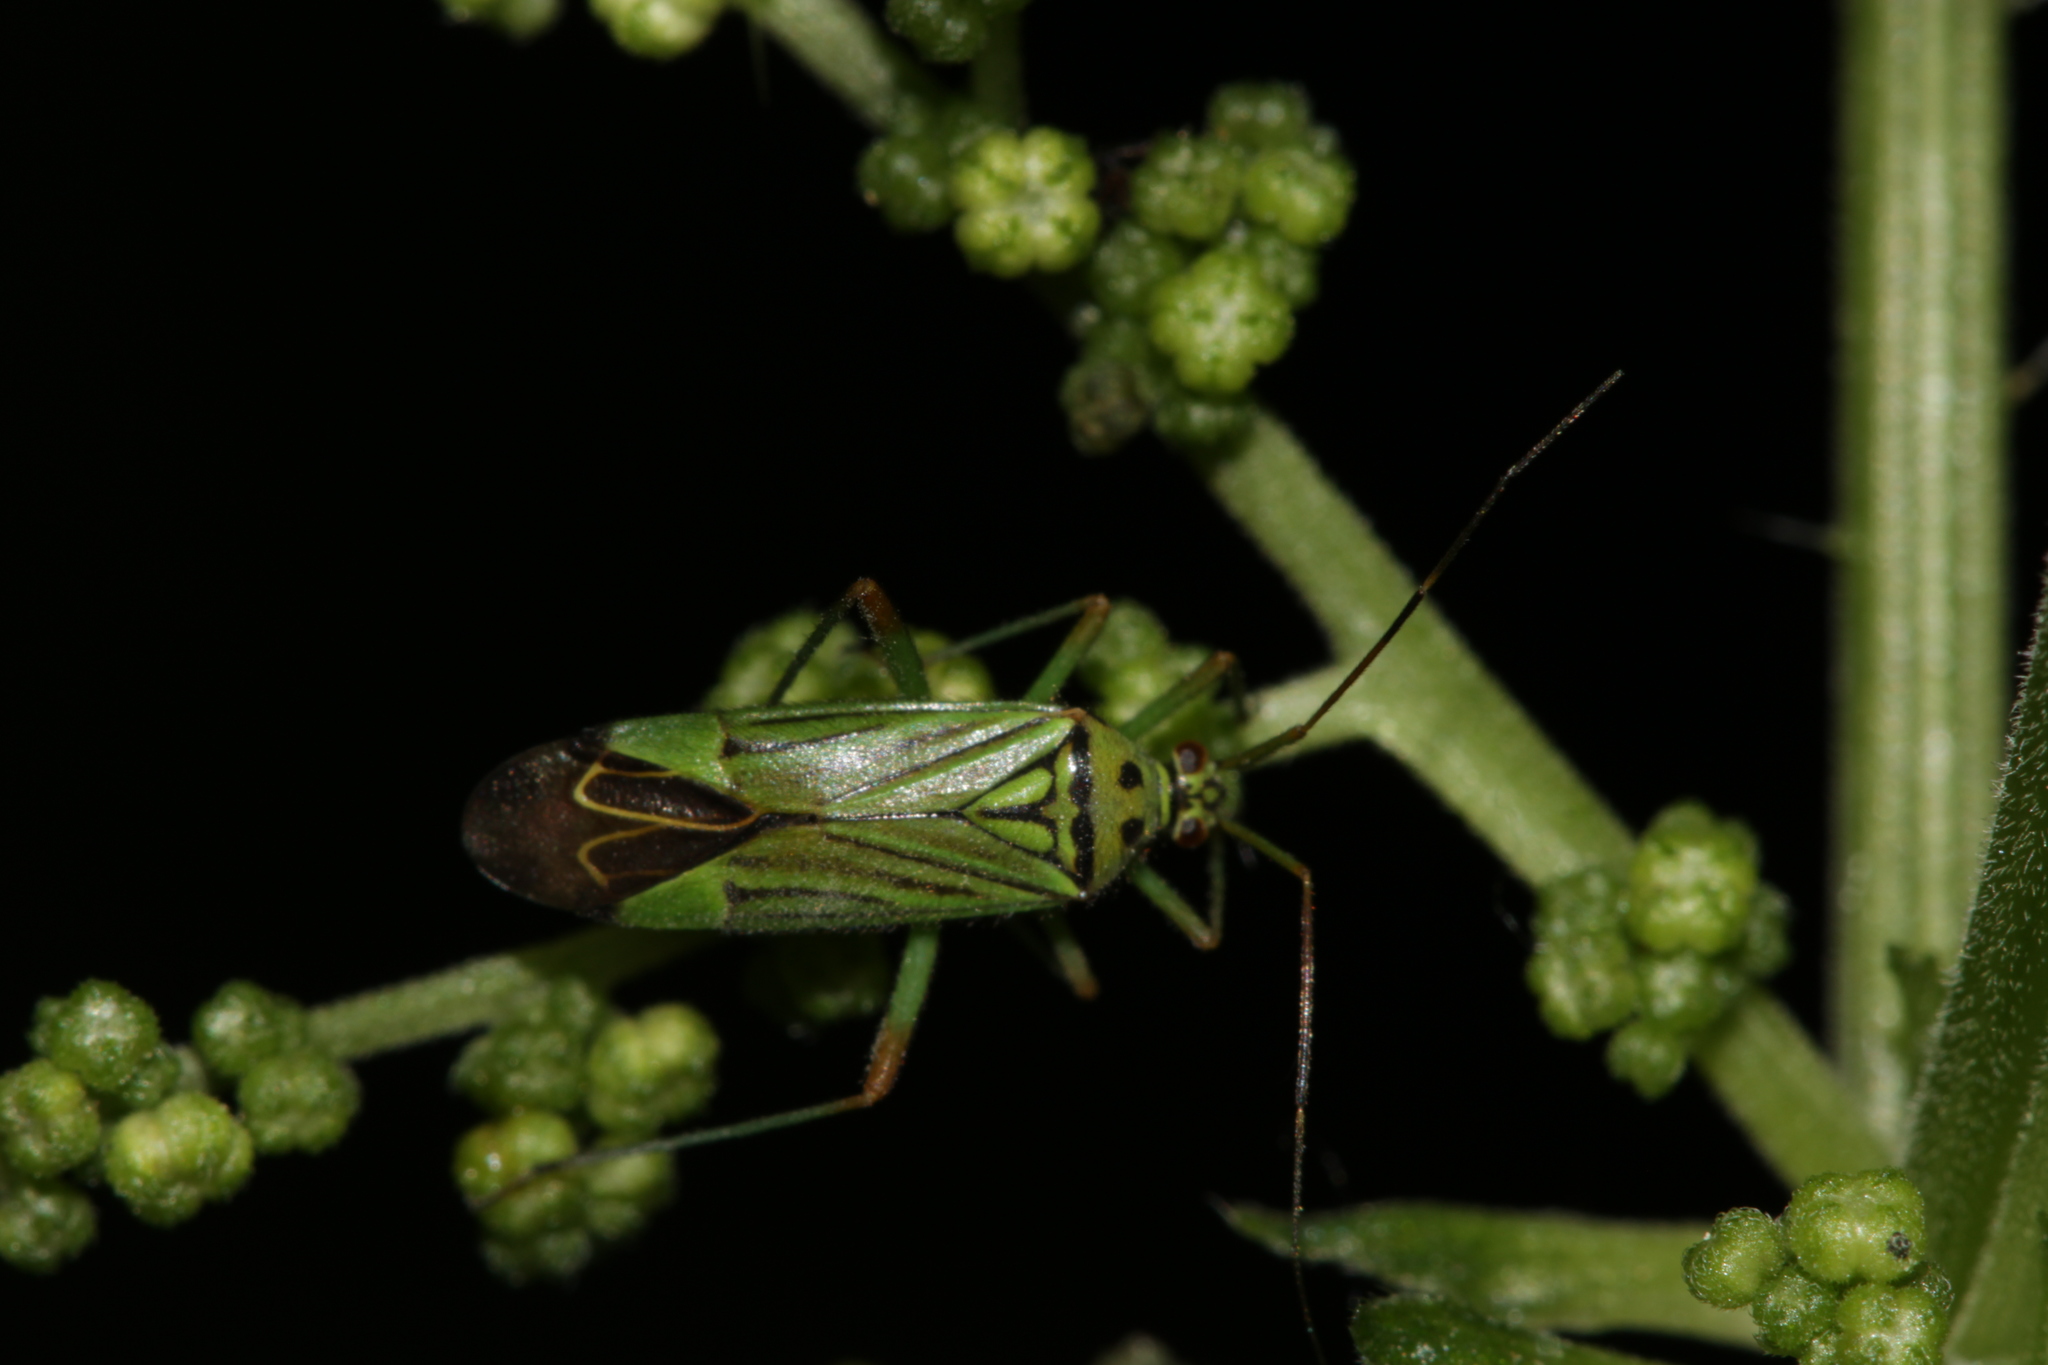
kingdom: Animalia
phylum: Arthropoda
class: Insecta
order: Hemiptera
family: Miridae
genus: Mermitelocerus
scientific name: Mermitelocerus schmidtii
